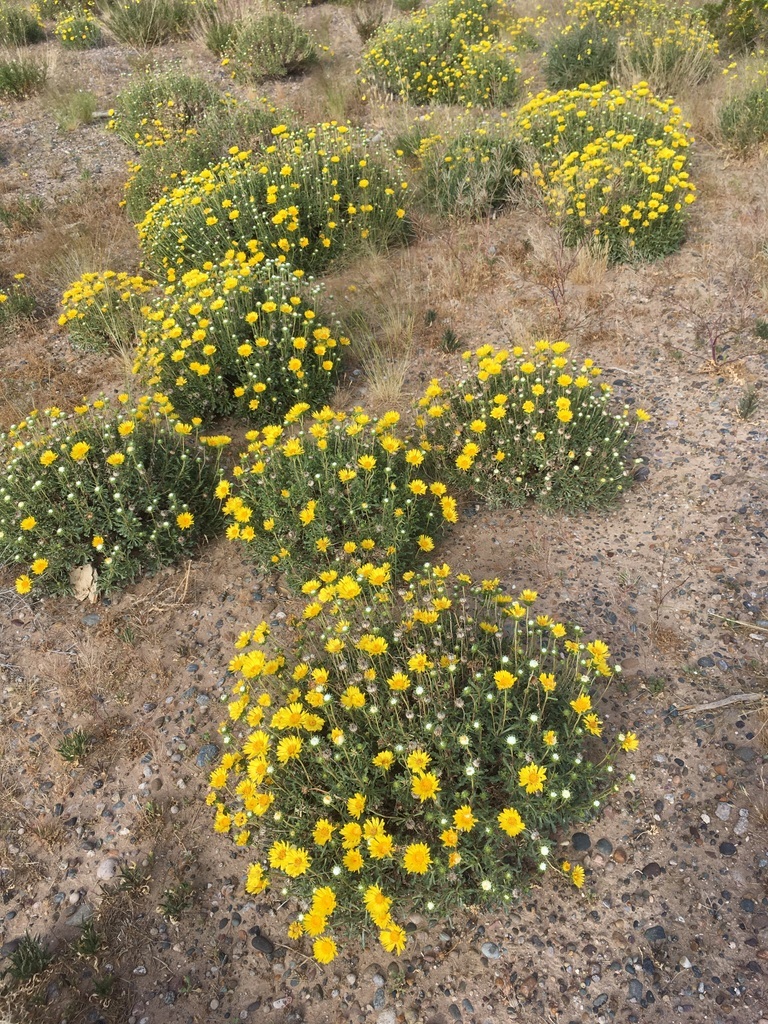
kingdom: Plantae
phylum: Tracheophyta
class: Magnoliopsida
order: Asterales
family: Asteraceae
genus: Grindelia
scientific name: Grindelia chiloensis
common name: Shrubby gumweed
